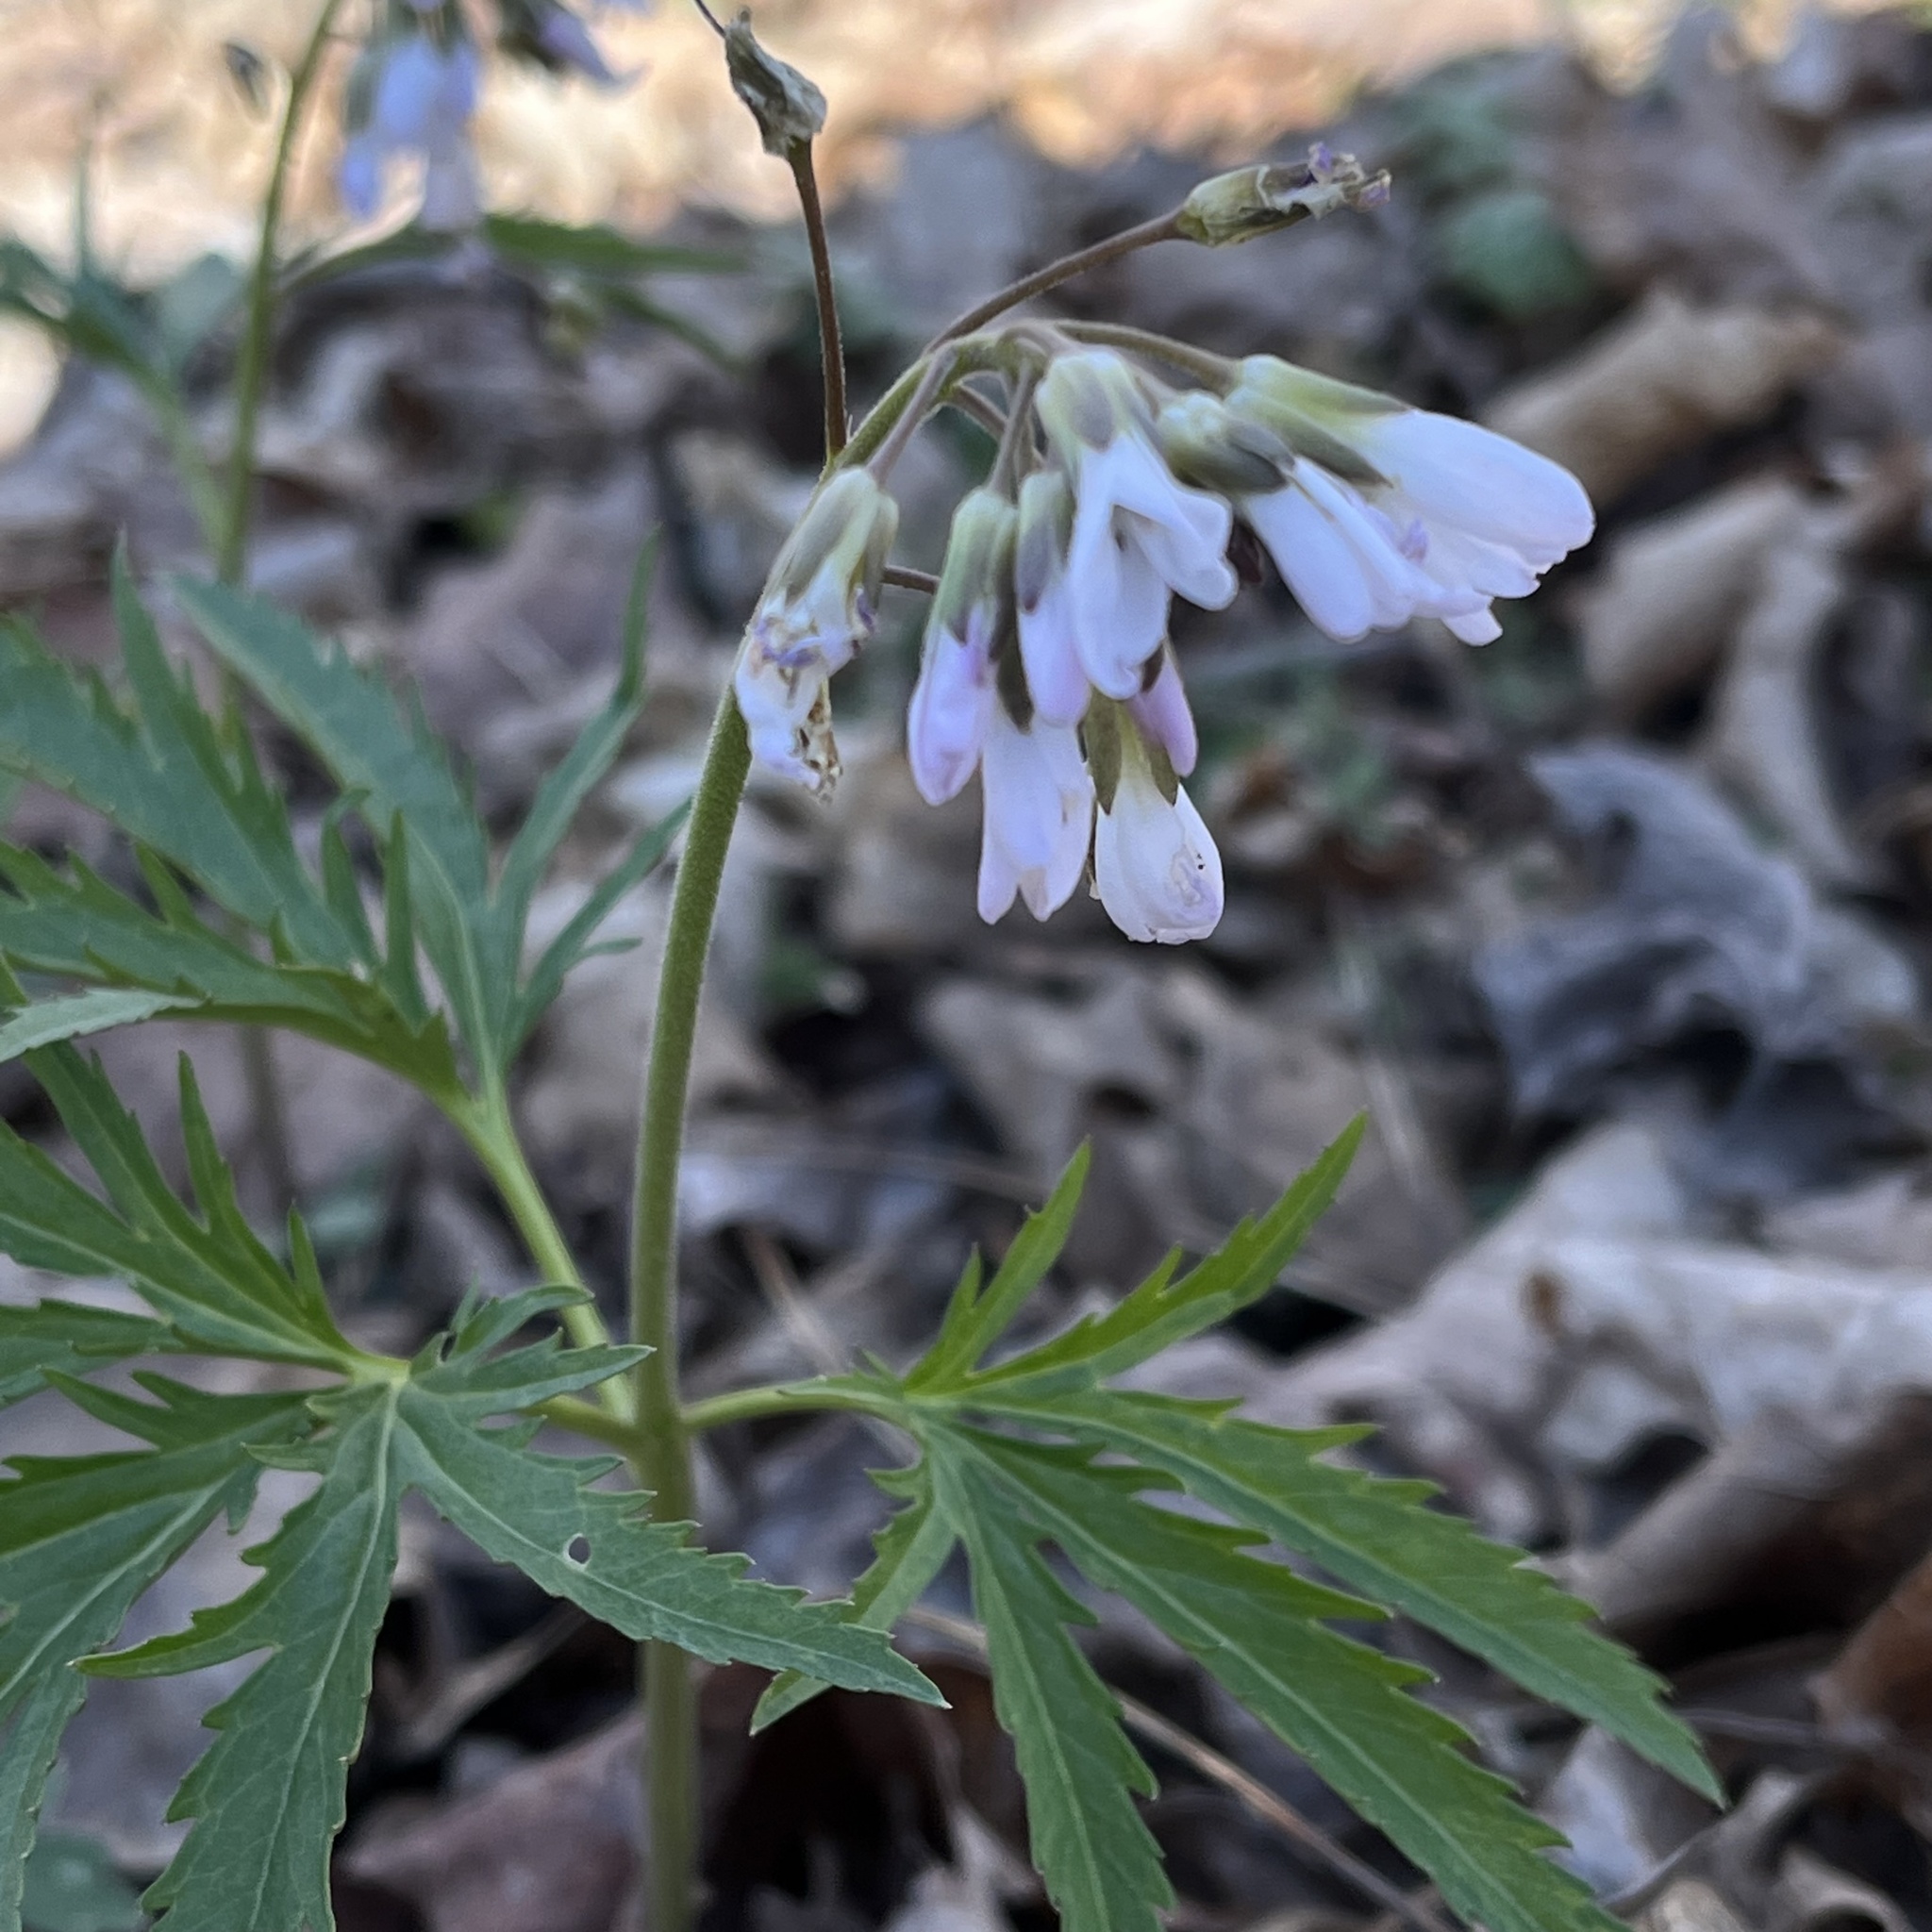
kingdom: Plantae
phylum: Tracheophyta
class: Magnoliopsida
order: Brassicales
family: Brassicaceae
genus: Cardamine
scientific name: Cardamine concatenata
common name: Cut-leaf toothcup
